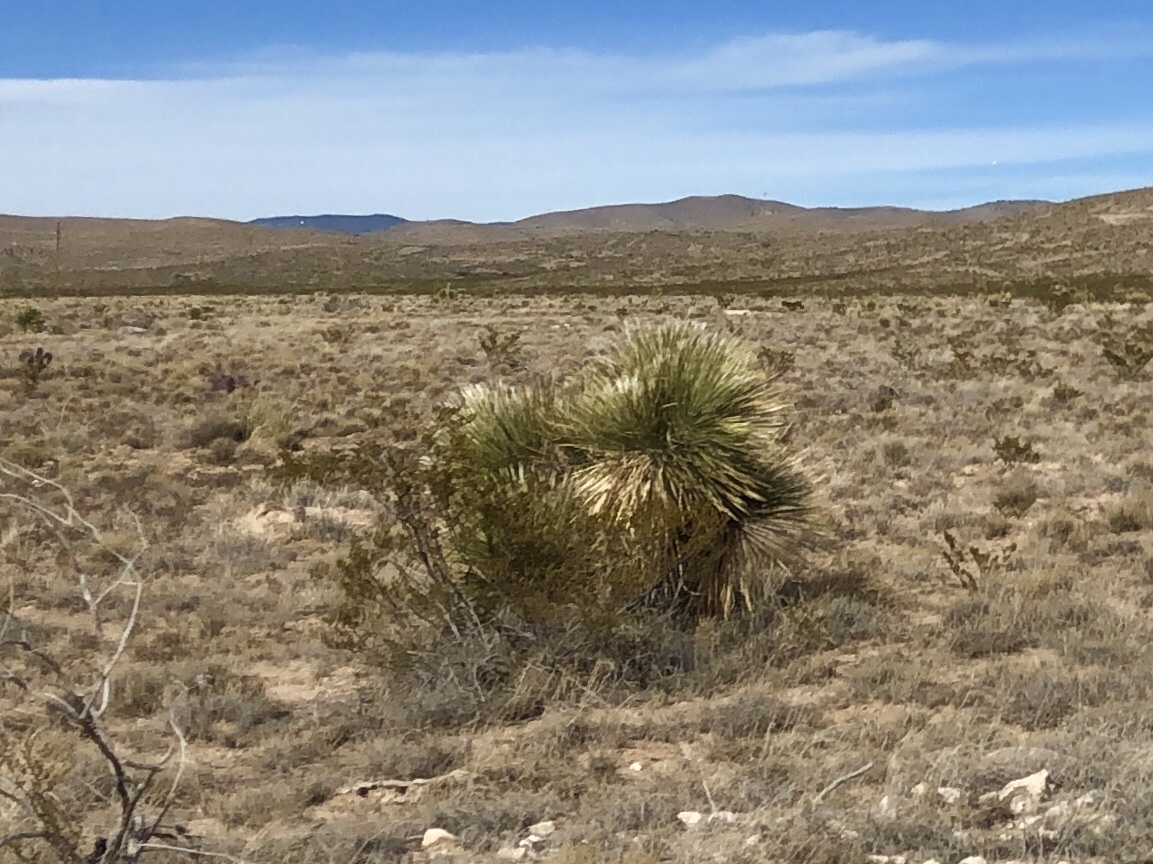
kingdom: Plantae
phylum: Tracheophyta
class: Liliopsida
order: Asparagales
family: Asparagaceae
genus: Yucca
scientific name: Yucca elata
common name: Palmella
